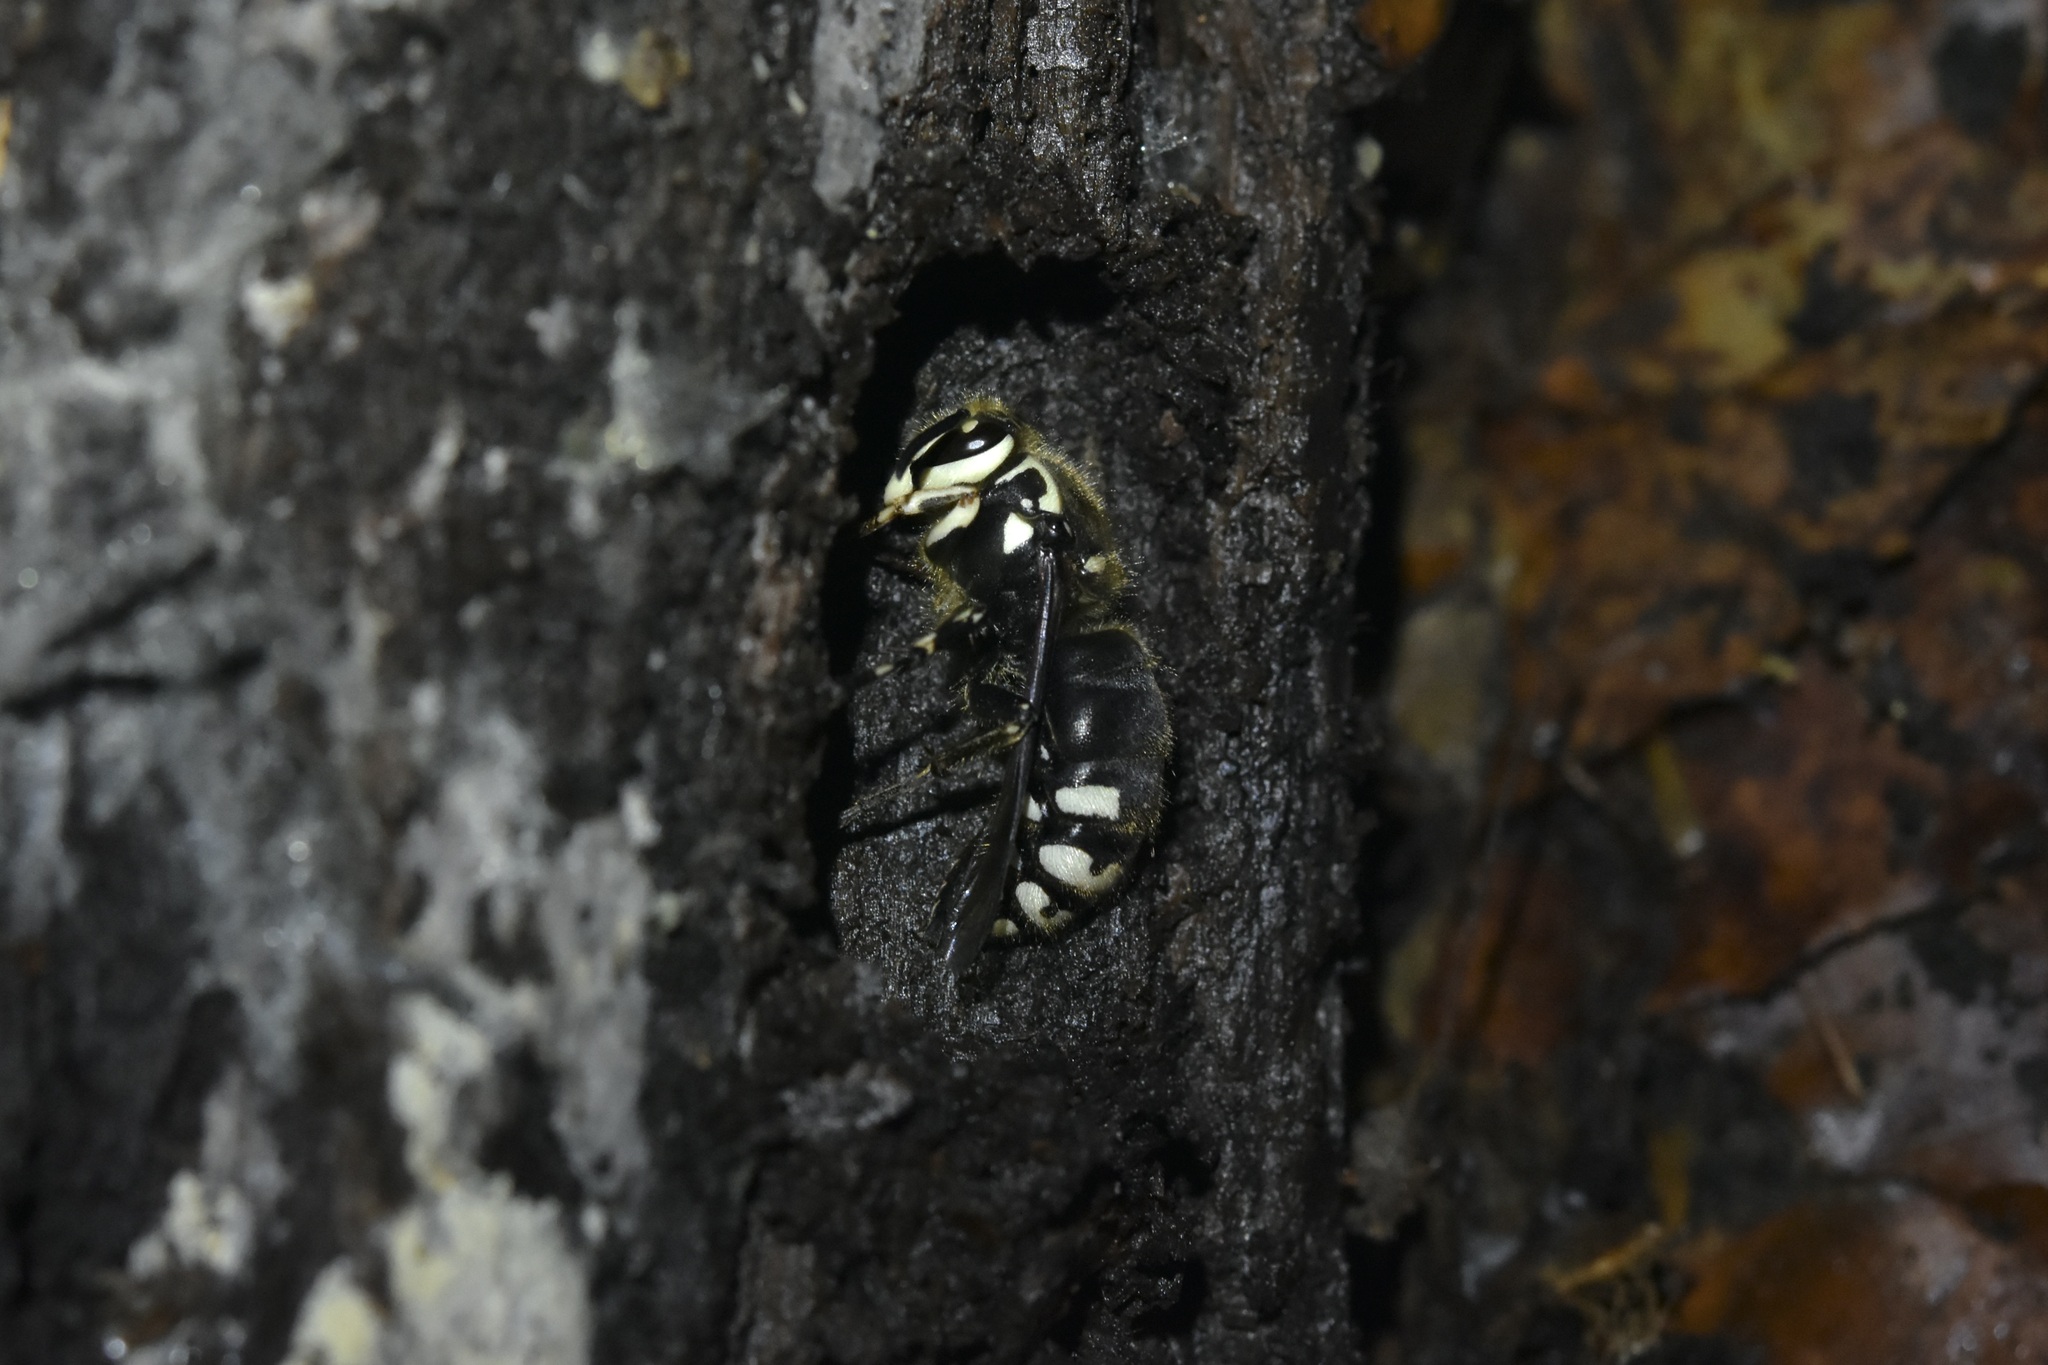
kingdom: Animalia
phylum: Arthropoda
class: Insecta
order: Hymenoptera
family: Vespidae
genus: Dolichovespula
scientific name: Dolichovespula maculata
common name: Bald-faced hornet
